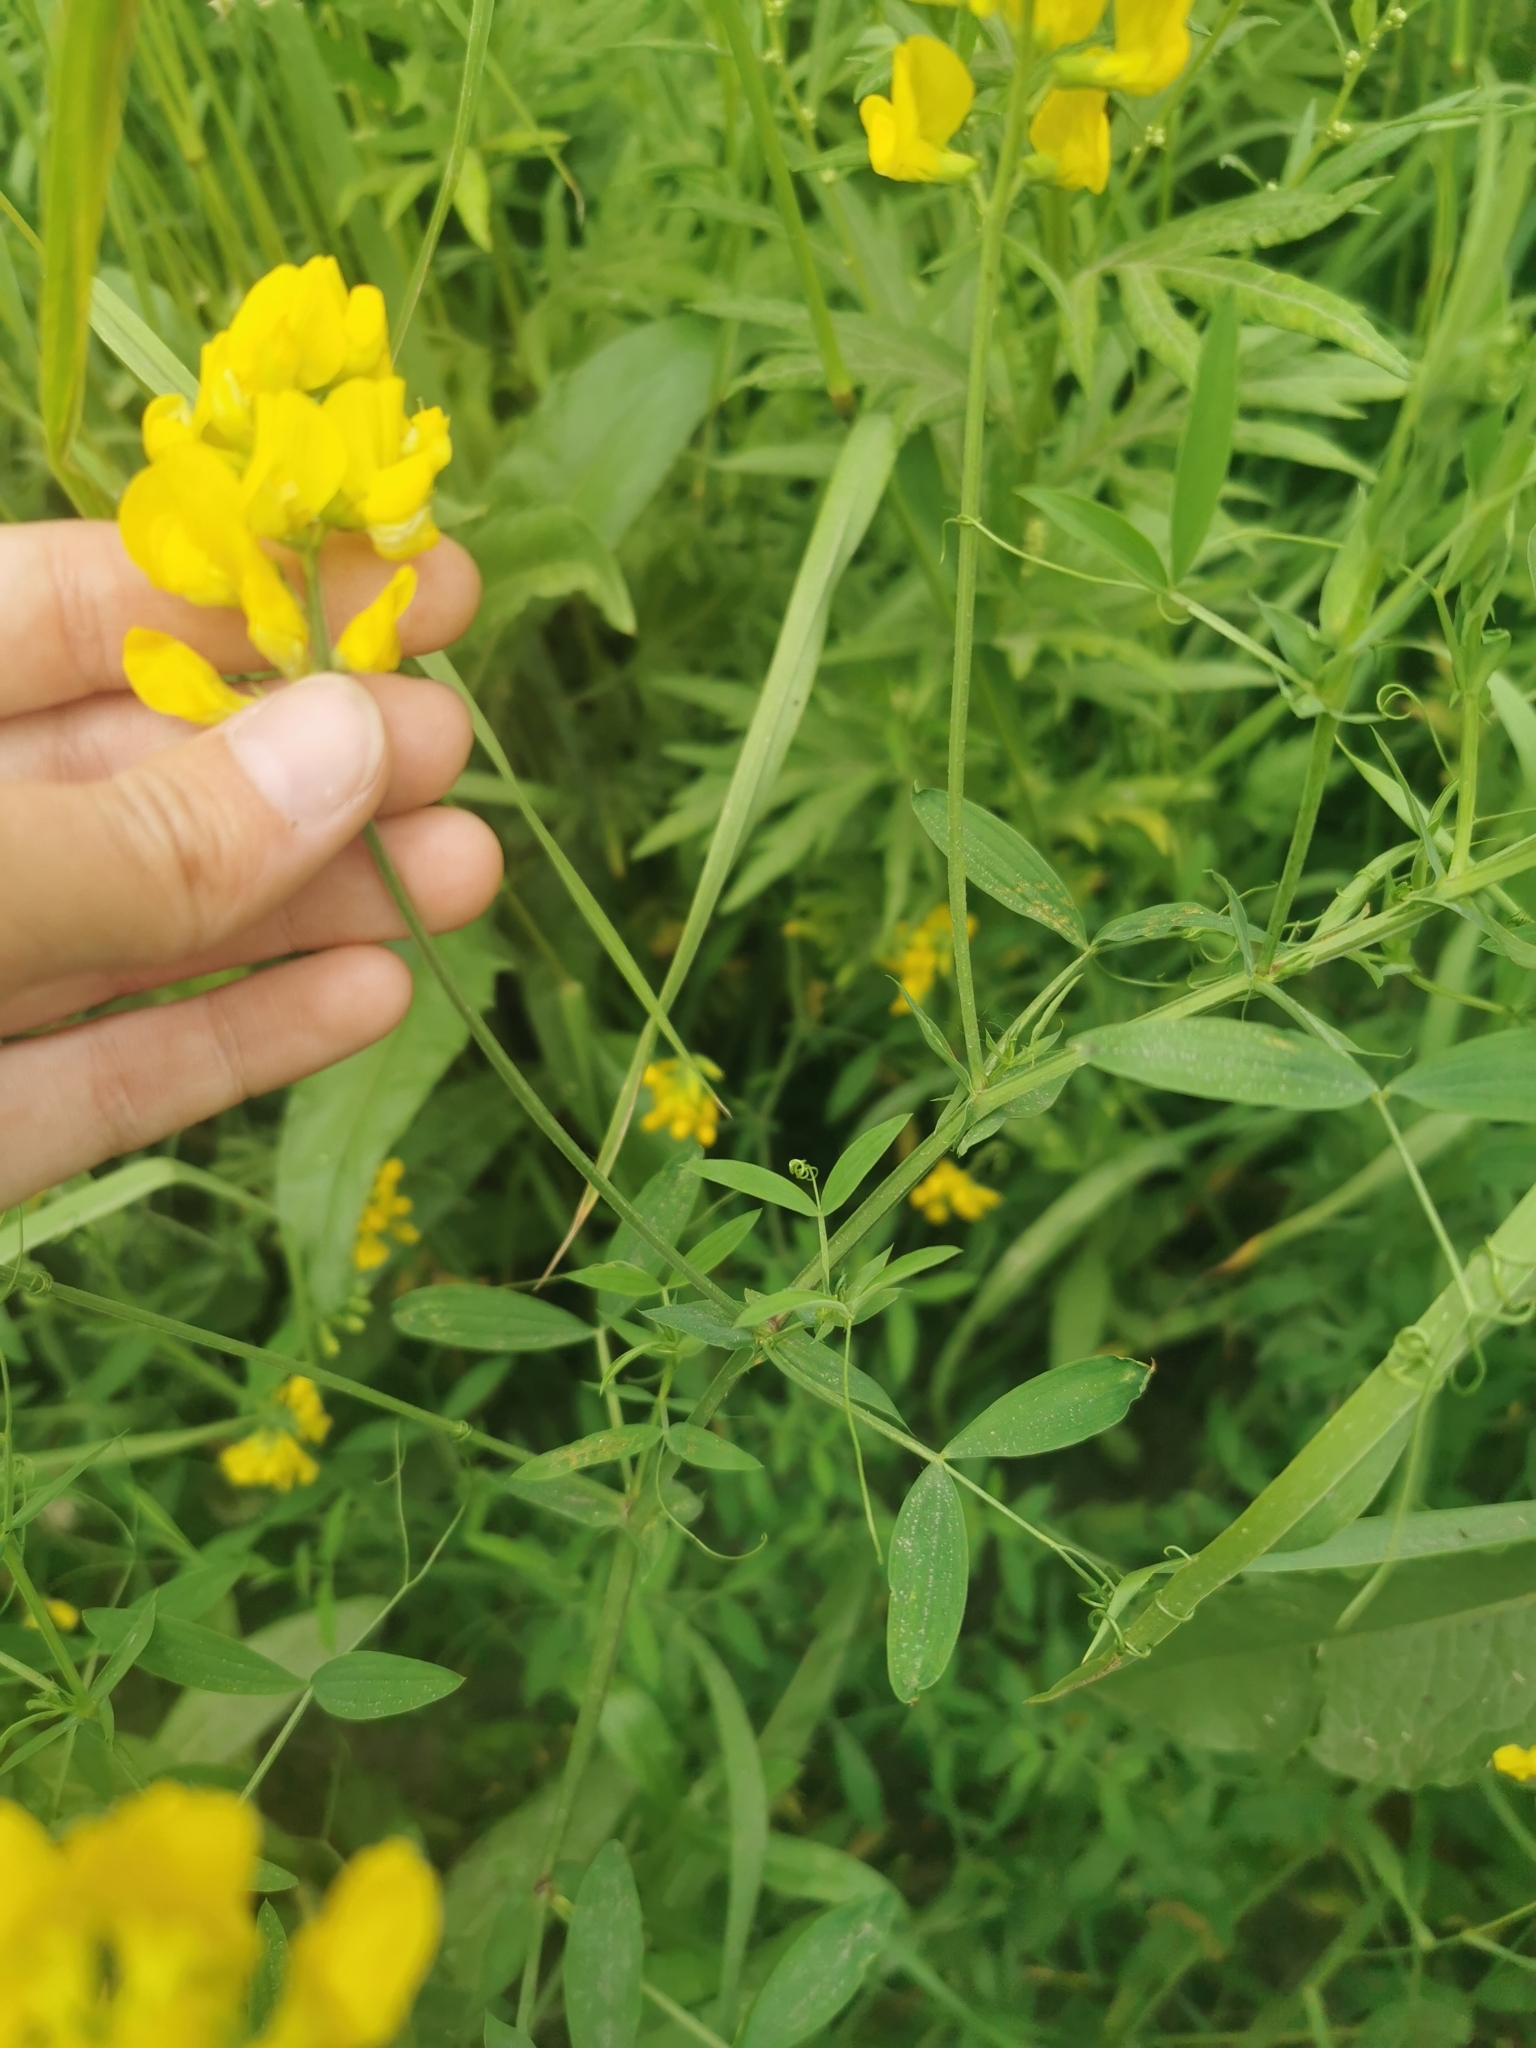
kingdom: Plantae
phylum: Tracheophyta
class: Magnoliopsida
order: Fabales
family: Fabaceae
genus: Medicago
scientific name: Medicago falcata
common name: Sickle medick
